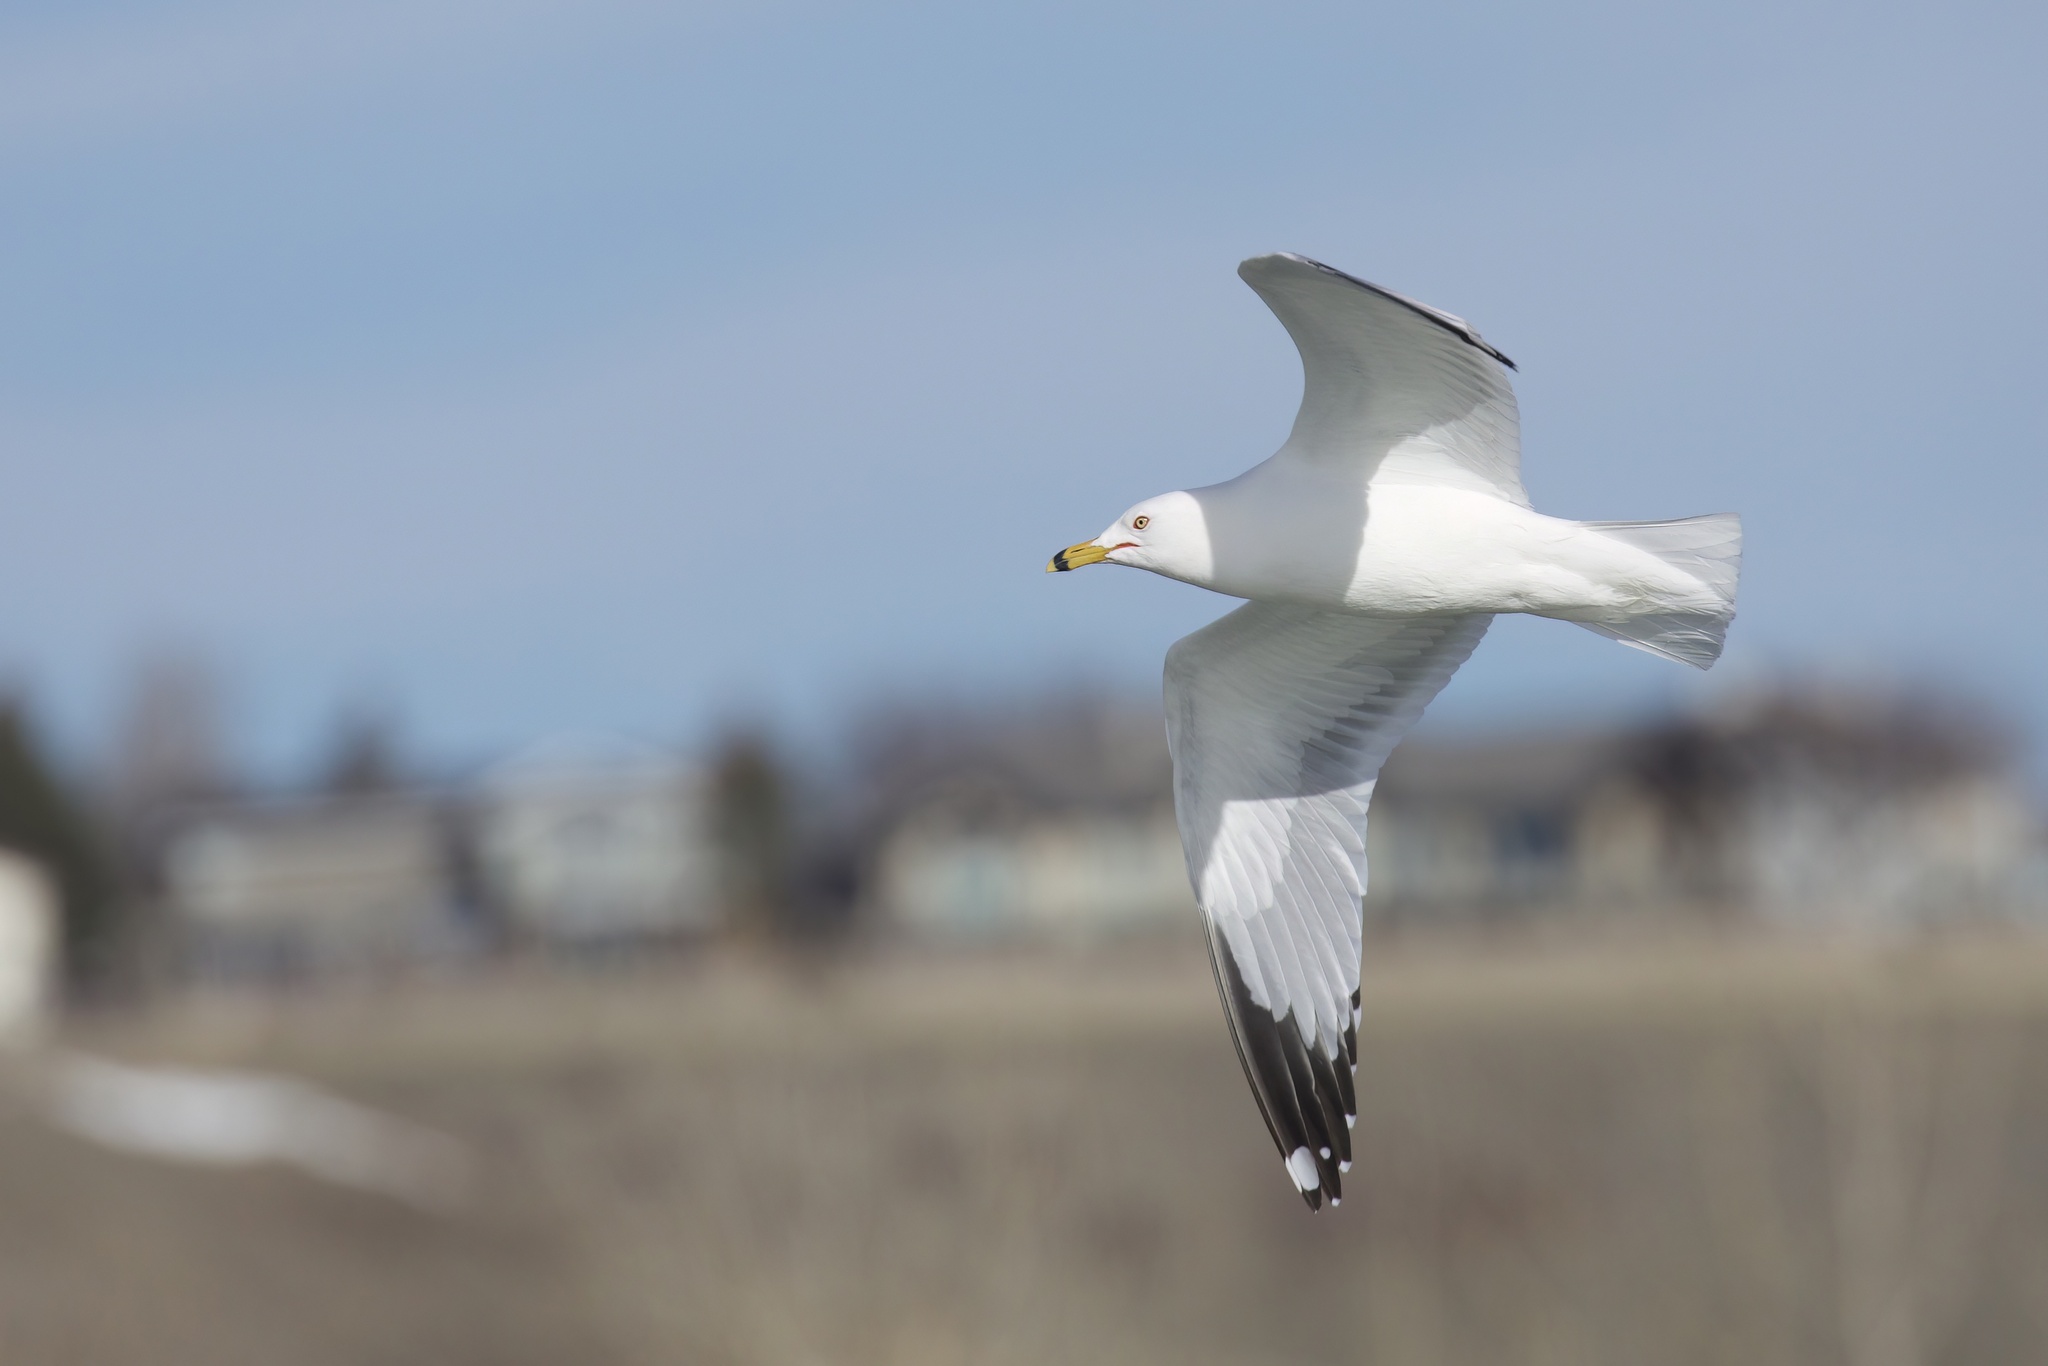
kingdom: Animalia
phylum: Chordata
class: Aves
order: Charadriiformes
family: Laridae
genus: Larus
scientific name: Larus delawarensis
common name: Ring-billed gull
